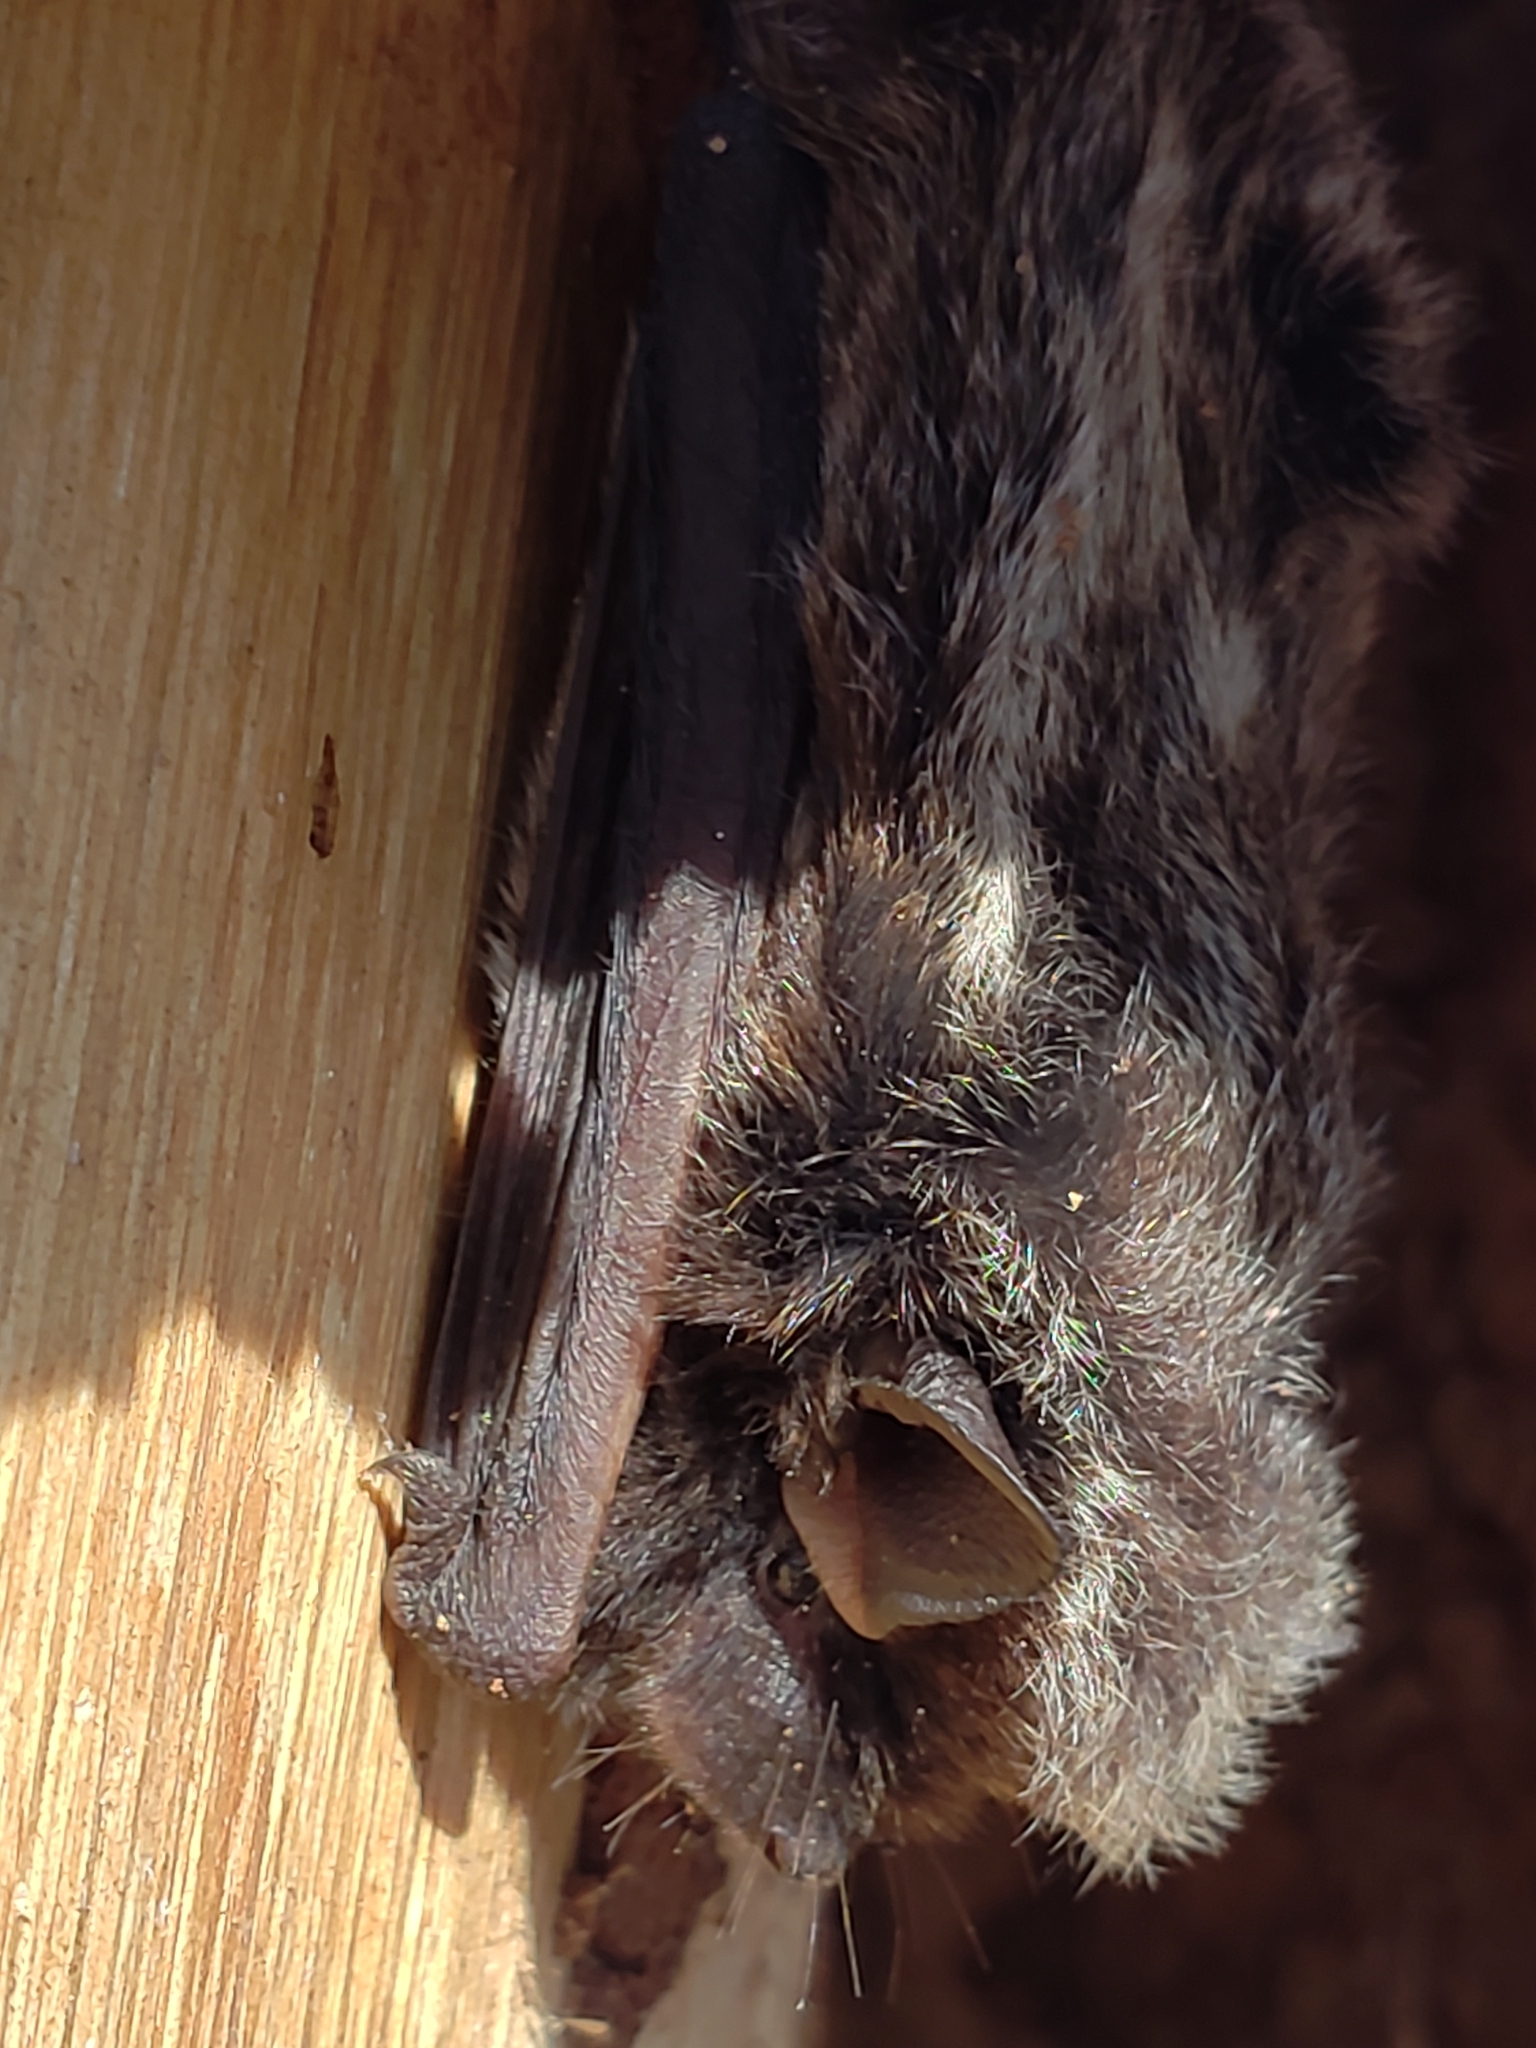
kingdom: Animalia
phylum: Chordata
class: Mammalia
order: Chiroptera
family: Vespertilionidae
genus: Lasionycteris
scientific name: Lasionycteris noctivagans
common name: Silver-haired bat
